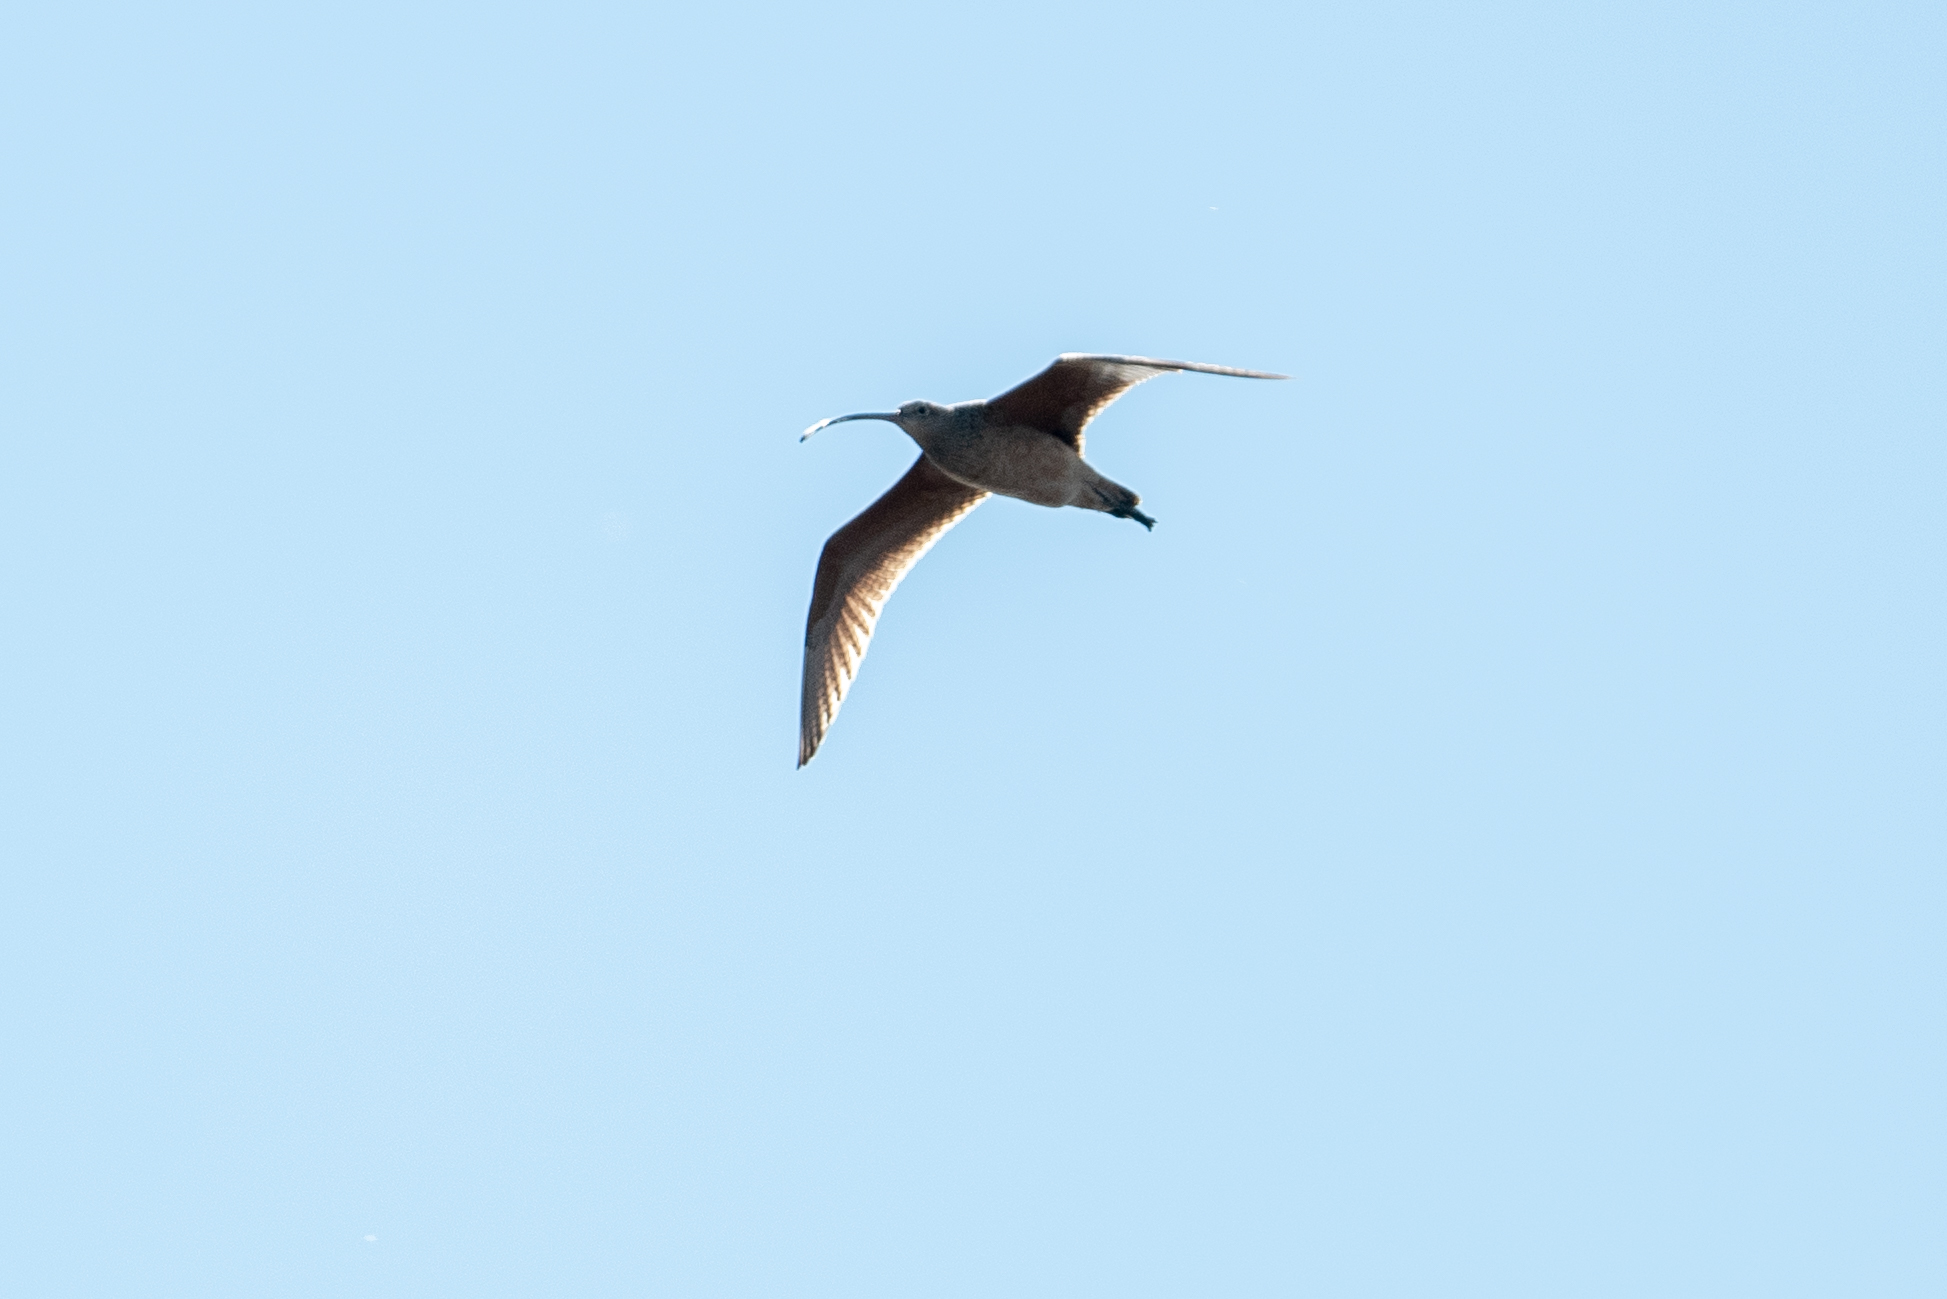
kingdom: Animalia
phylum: Chordata
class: Aves
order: Charadriiformes
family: Scolopacidae
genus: Numenius
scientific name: Numenius americanus
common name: Long-billed curlew
